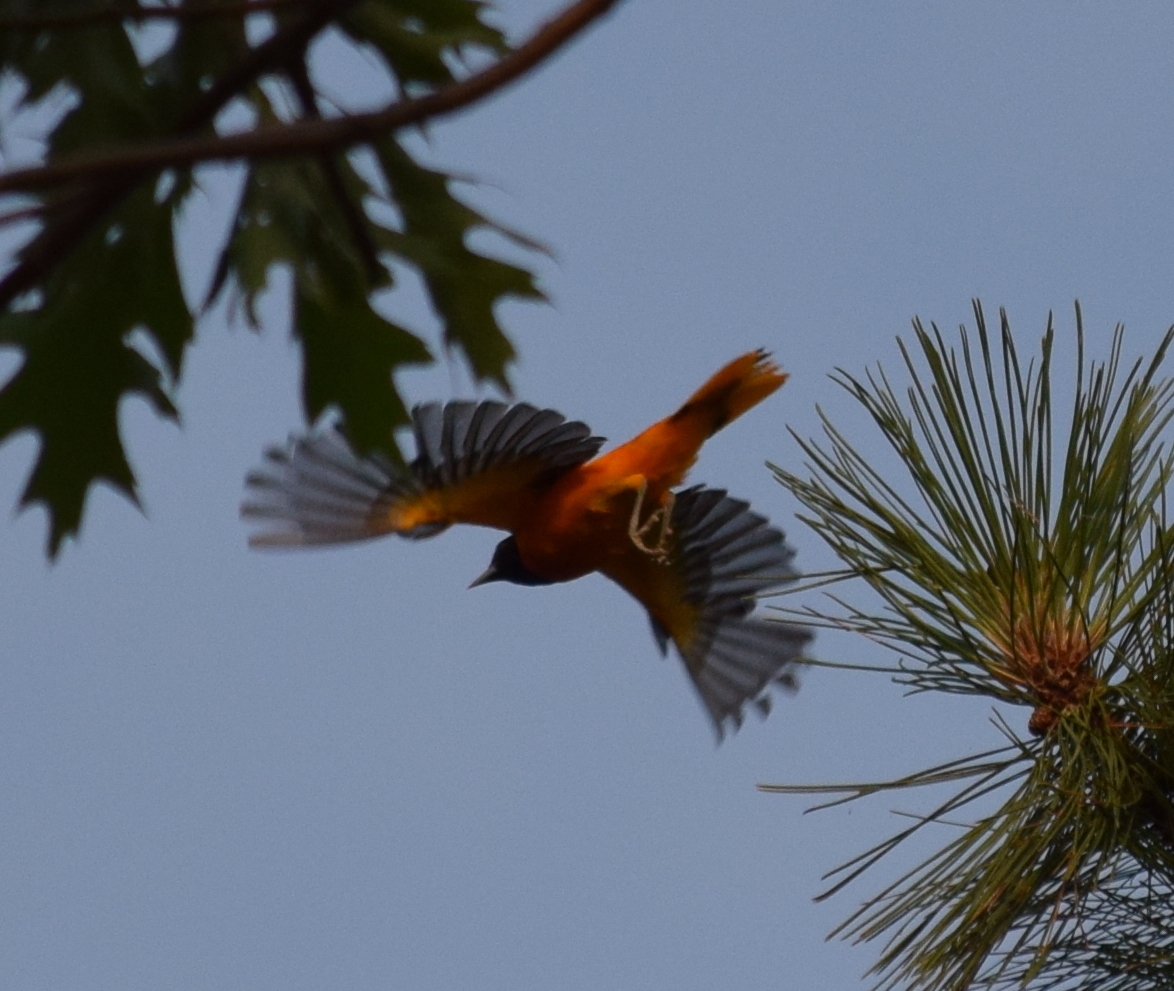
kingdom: Animalia
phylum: Chordata
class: Aves
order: Passeriformes
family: Icteridae
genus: Icterus
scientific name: Icterus galbula
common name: Baltimore oriole
